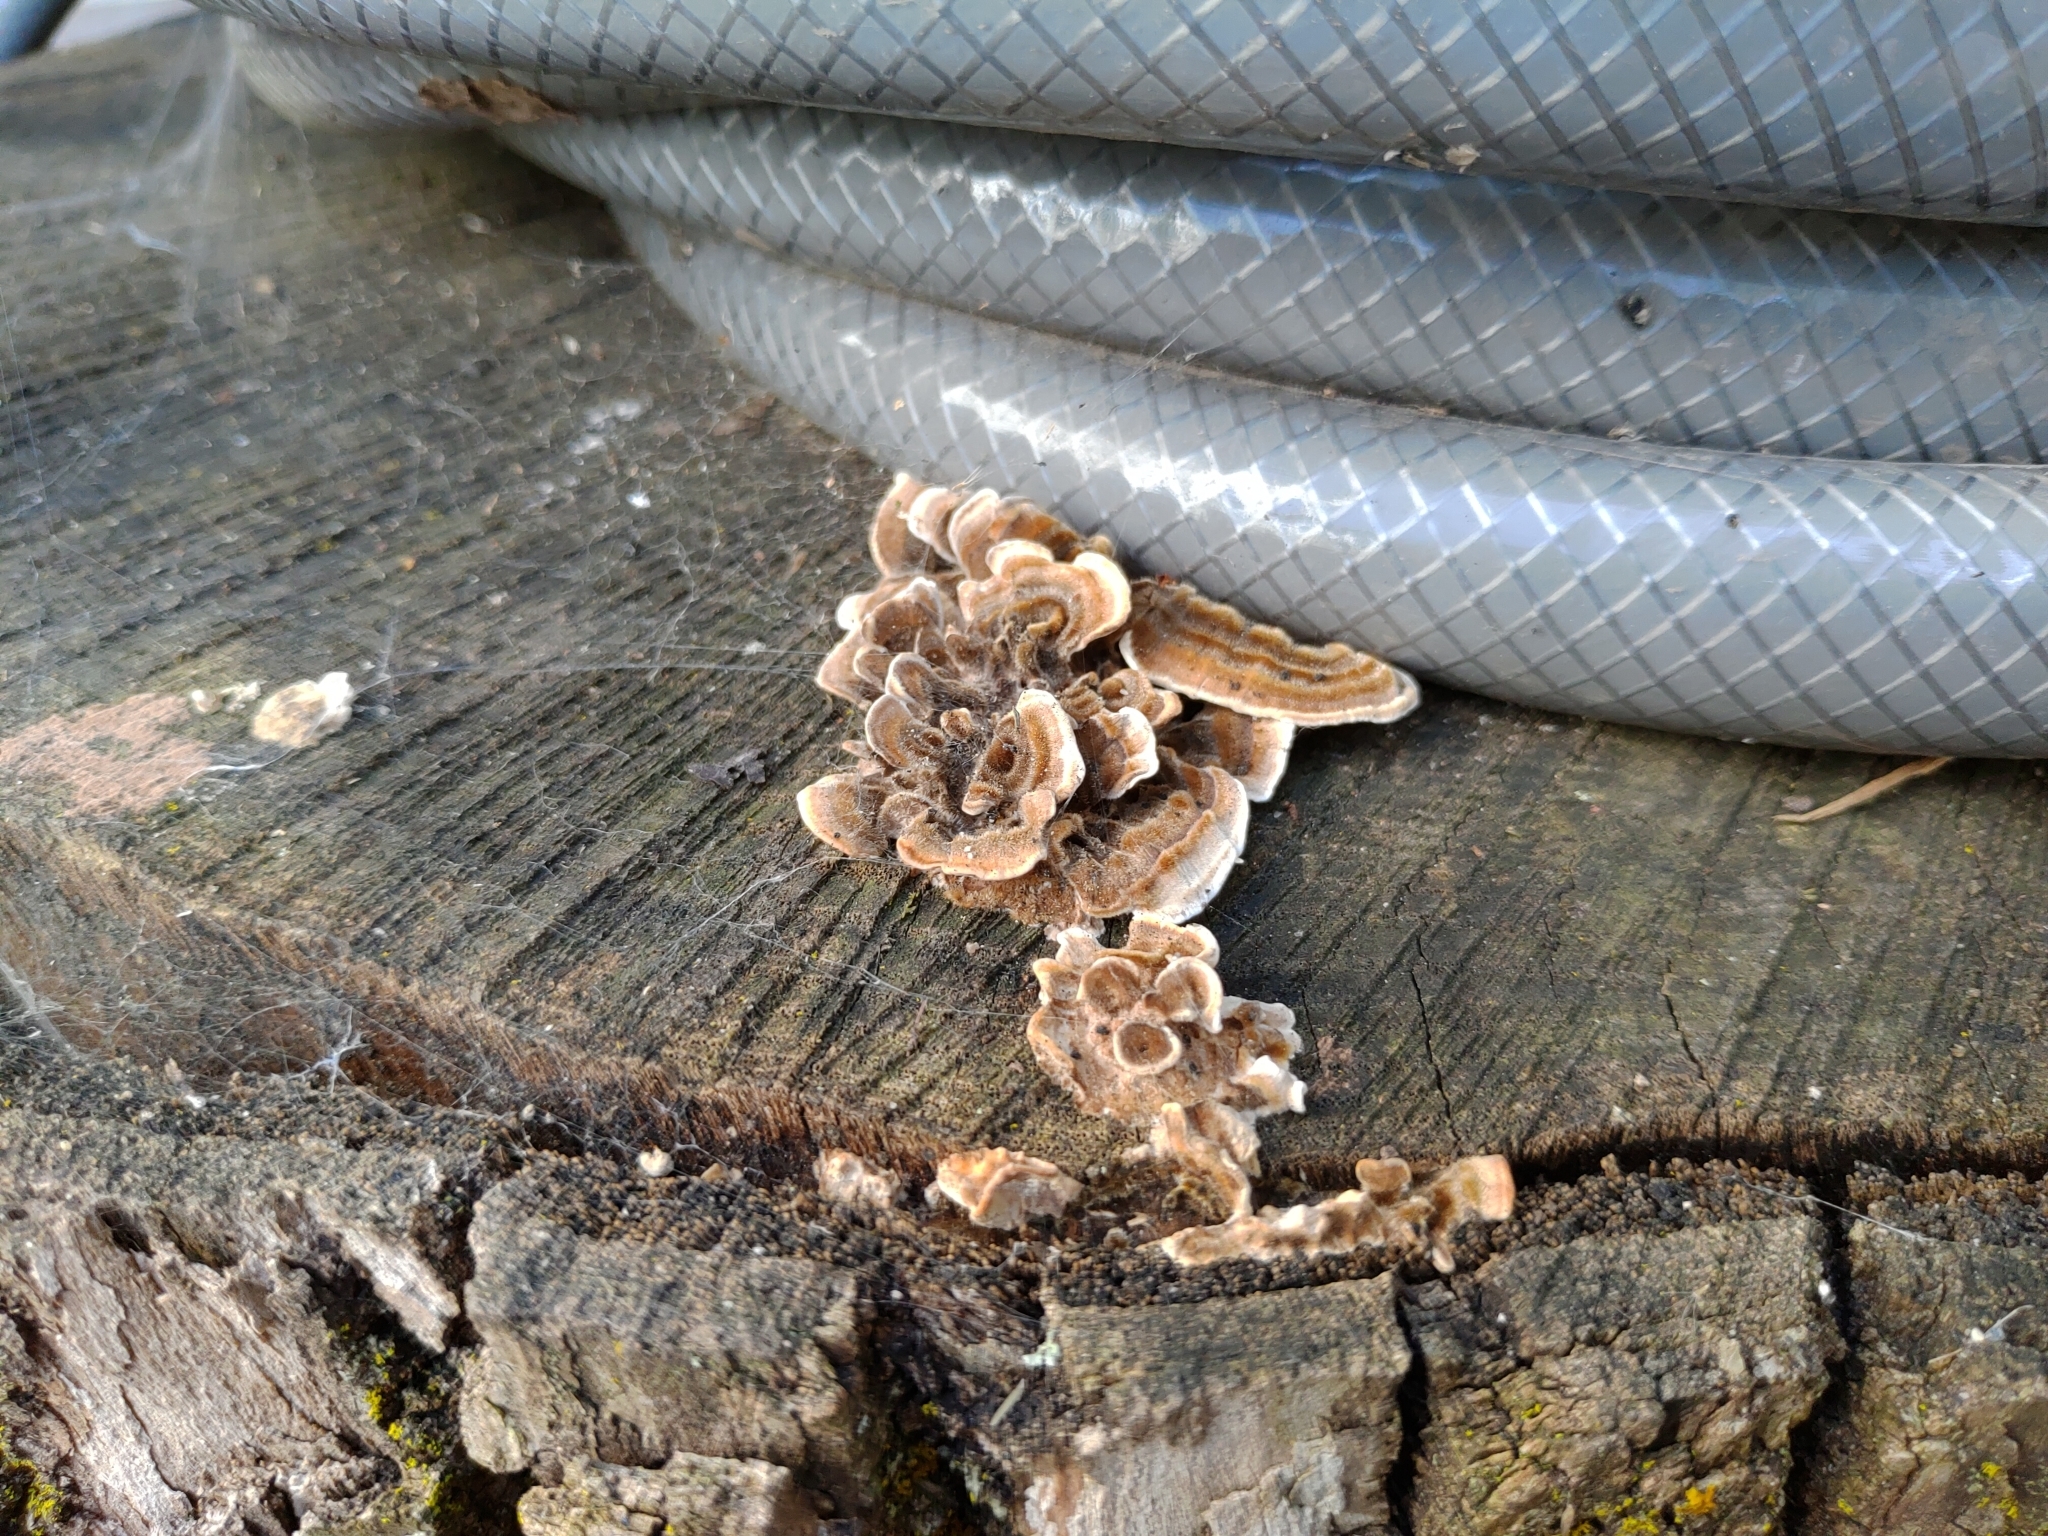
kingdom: Fungi
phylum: Basidiomycota
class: Agaricomycetes
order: Polyporales
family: Polyporaceae
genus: Trametes
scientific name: Trametes versicolor
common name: Turkeytail
